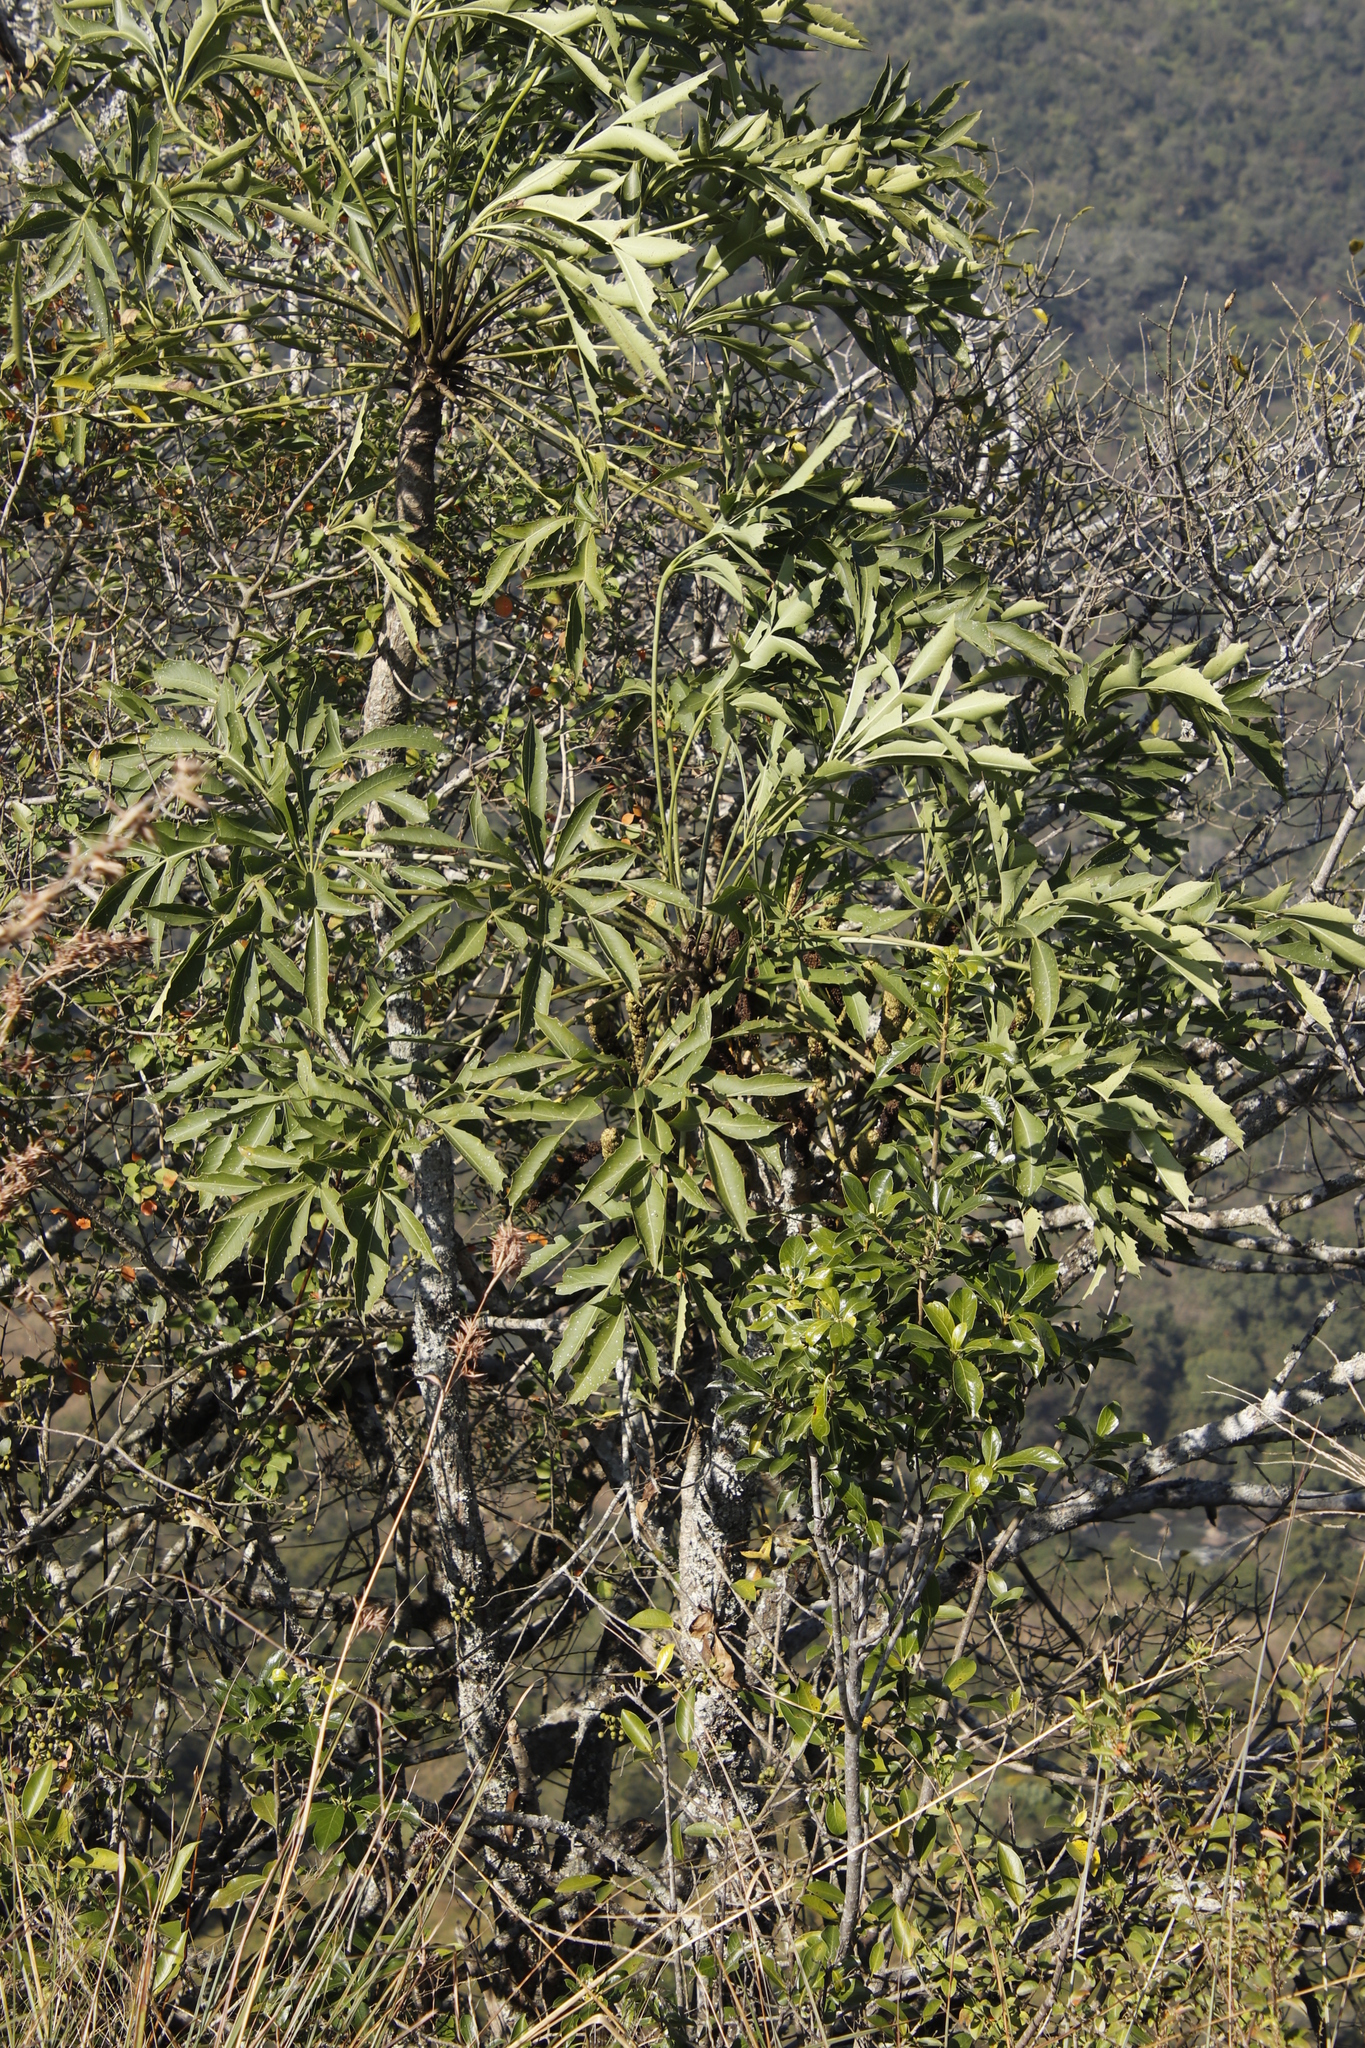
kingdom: Plantae
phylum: Tracheophyta
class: Magnoliopsida
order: Apiales
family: Araliaceae
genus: Cussonia
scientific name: Cussonia sphaerocephala
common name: Forest cabbage-tree
